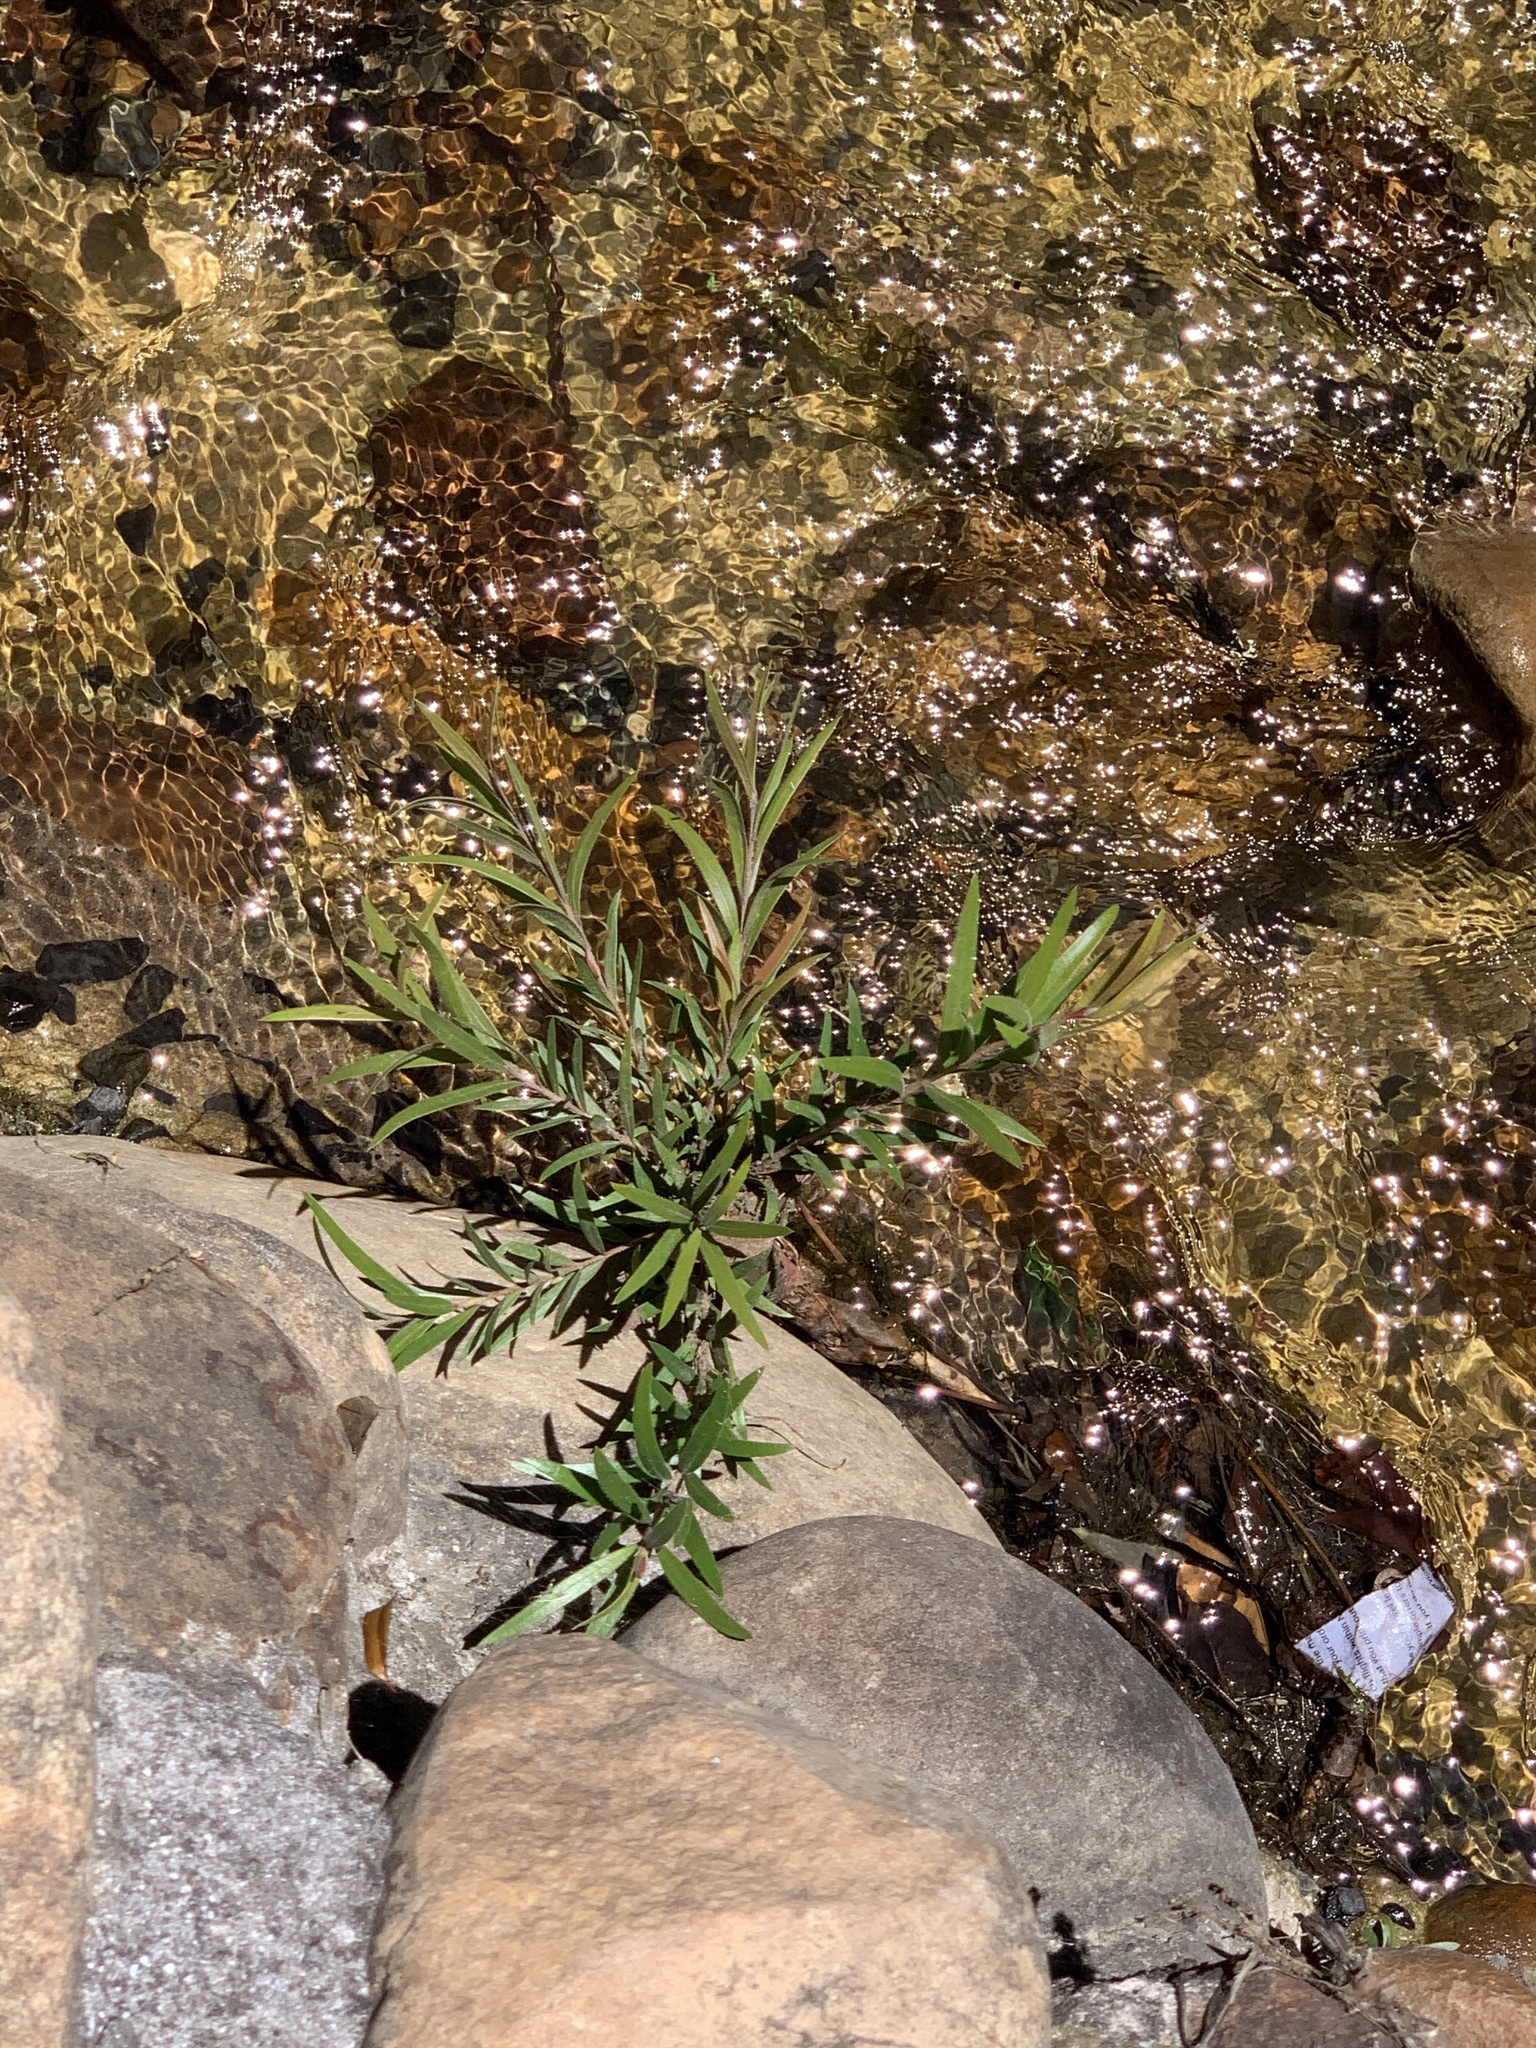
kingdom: Plantae
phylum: Tracheophyta
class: Magnoliopsida
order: Myrtales
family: Myrtaceae
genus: Callistemon
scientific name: Callistemon viminalis
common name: Drooping bottlebrush
